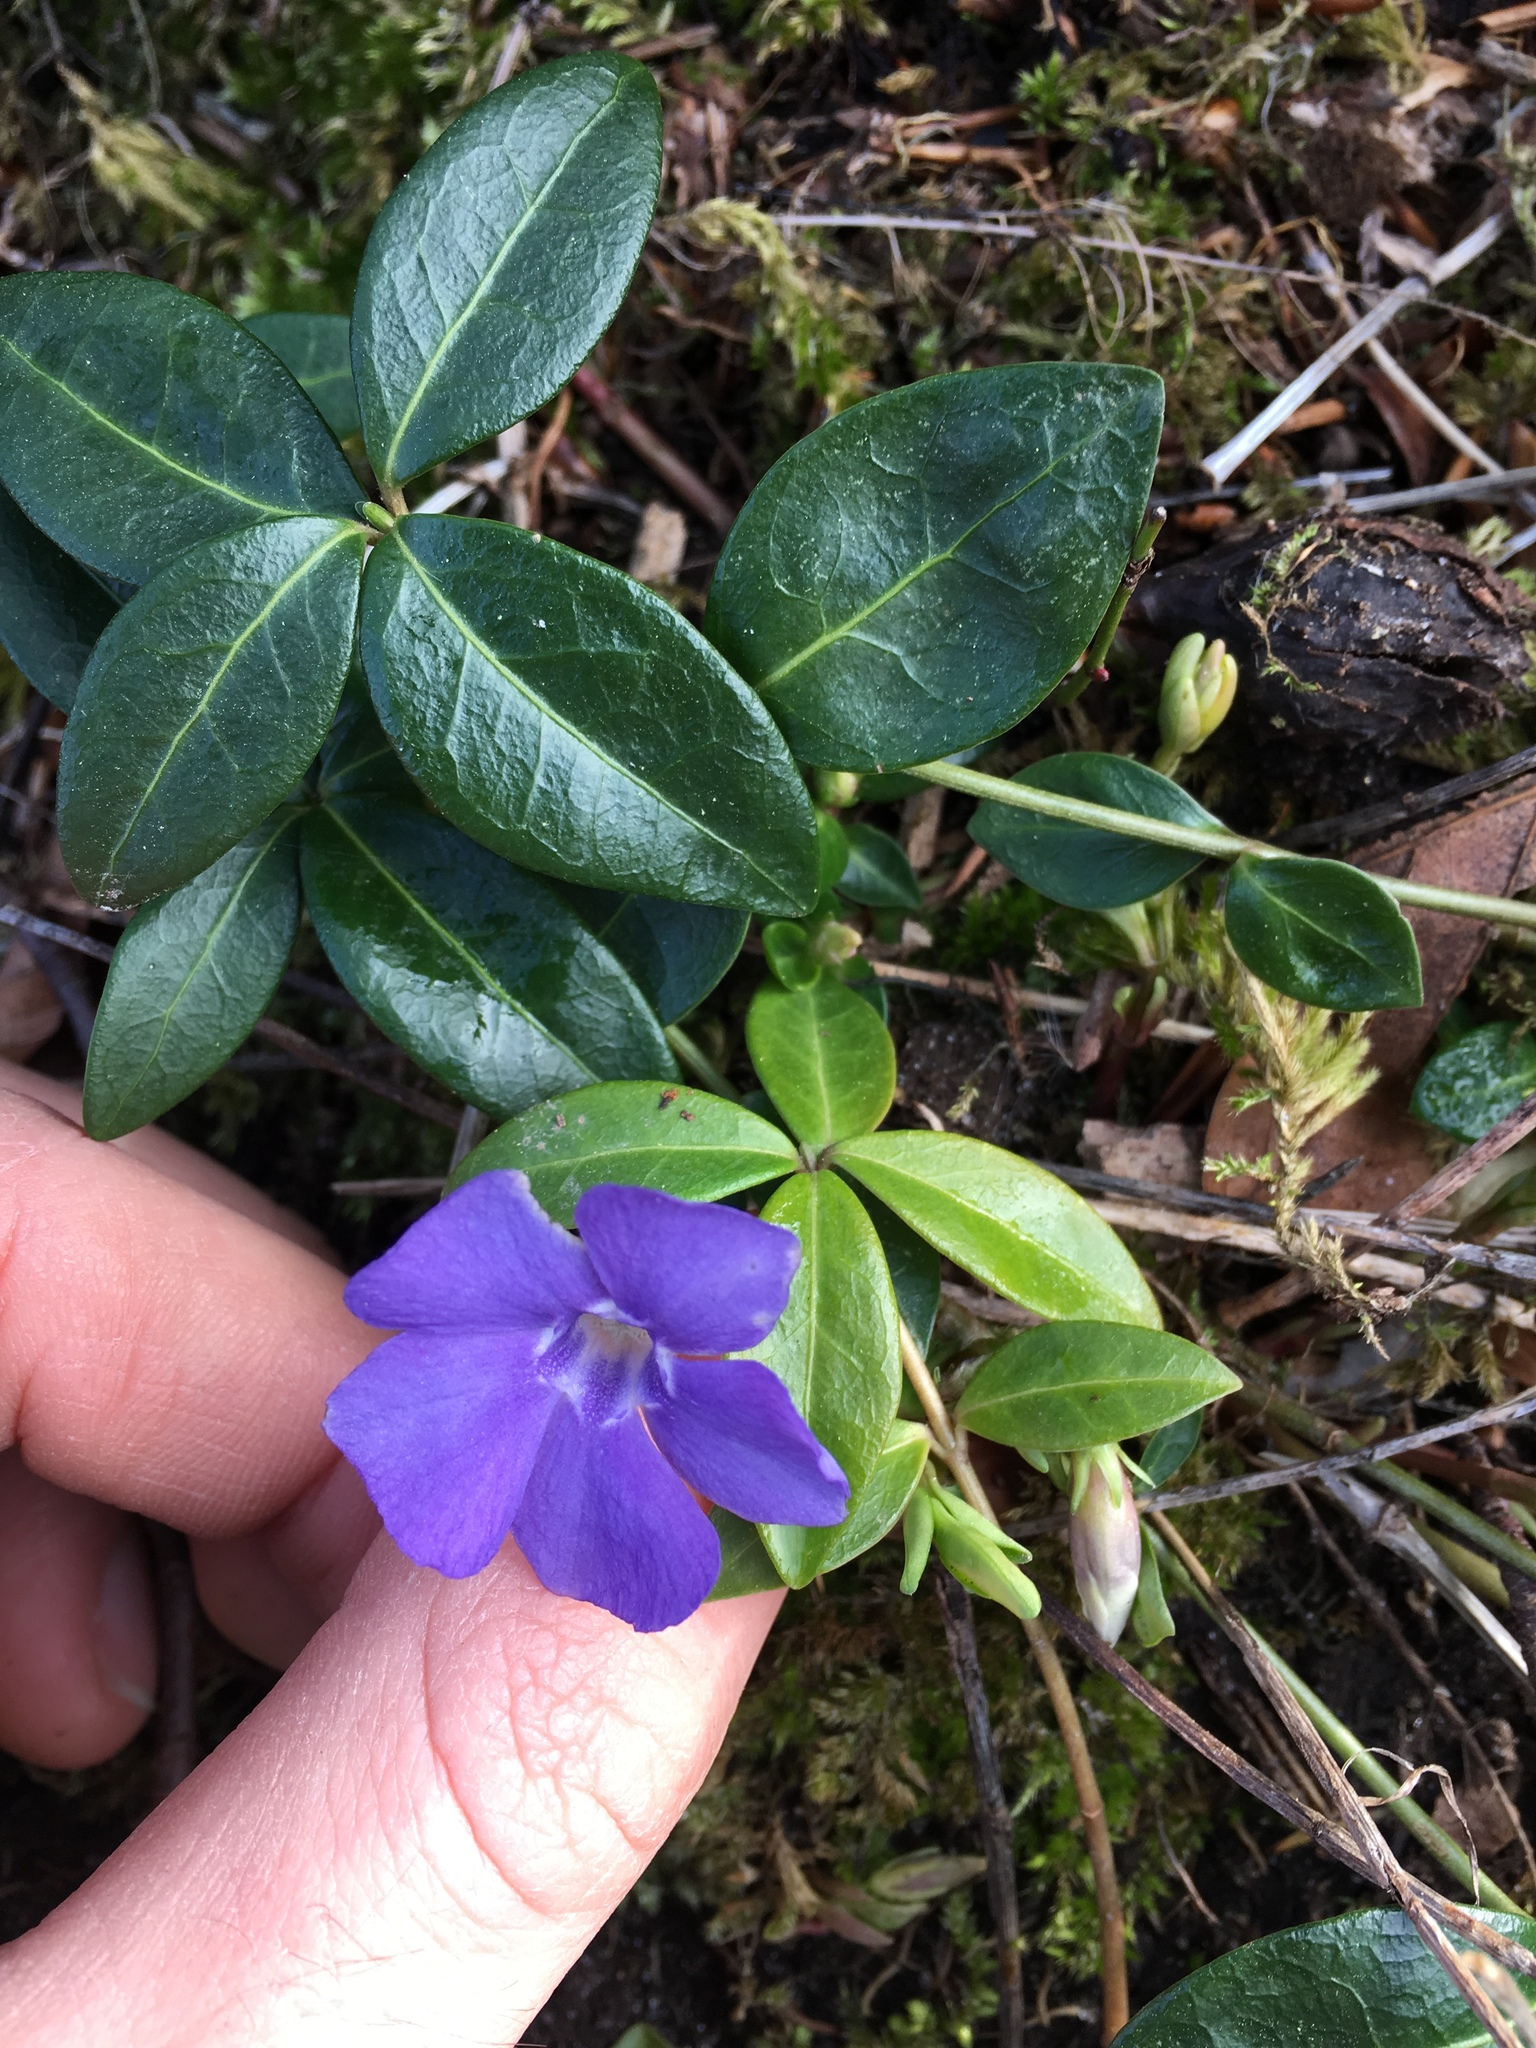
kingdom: Plantae
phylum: Tracheophyta
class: Magnoliopsida
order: Gentianales
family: Apocynaceae
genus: Vinca
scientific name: Vinca minor
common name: Lesser periwinkle
